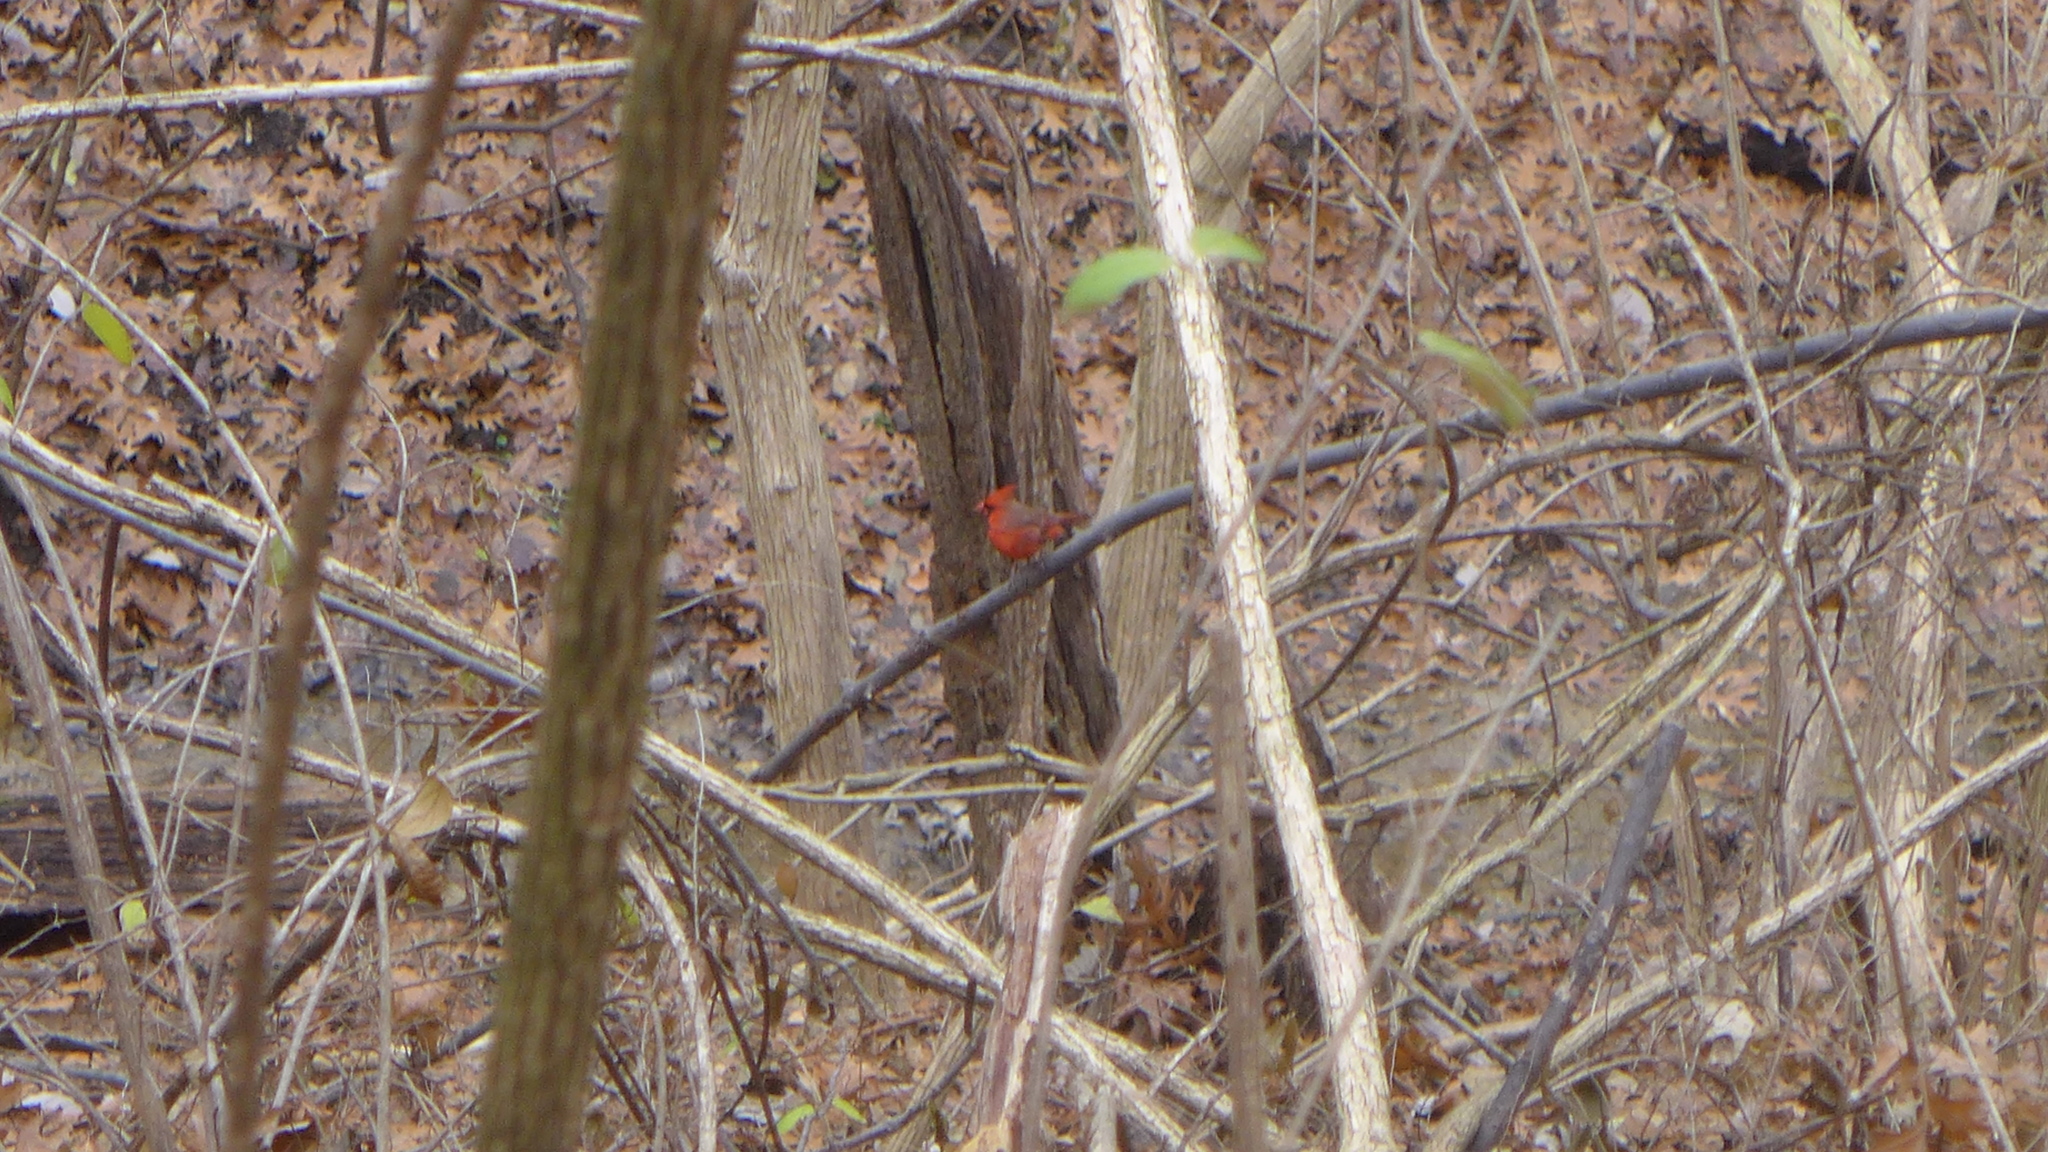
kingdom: Animalia
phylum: Chordata
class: Aves
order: Passeriformes
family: Cardinalidae
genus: Cardinalis
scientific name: Cardinalis cardinalis
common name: Northern cardinal
